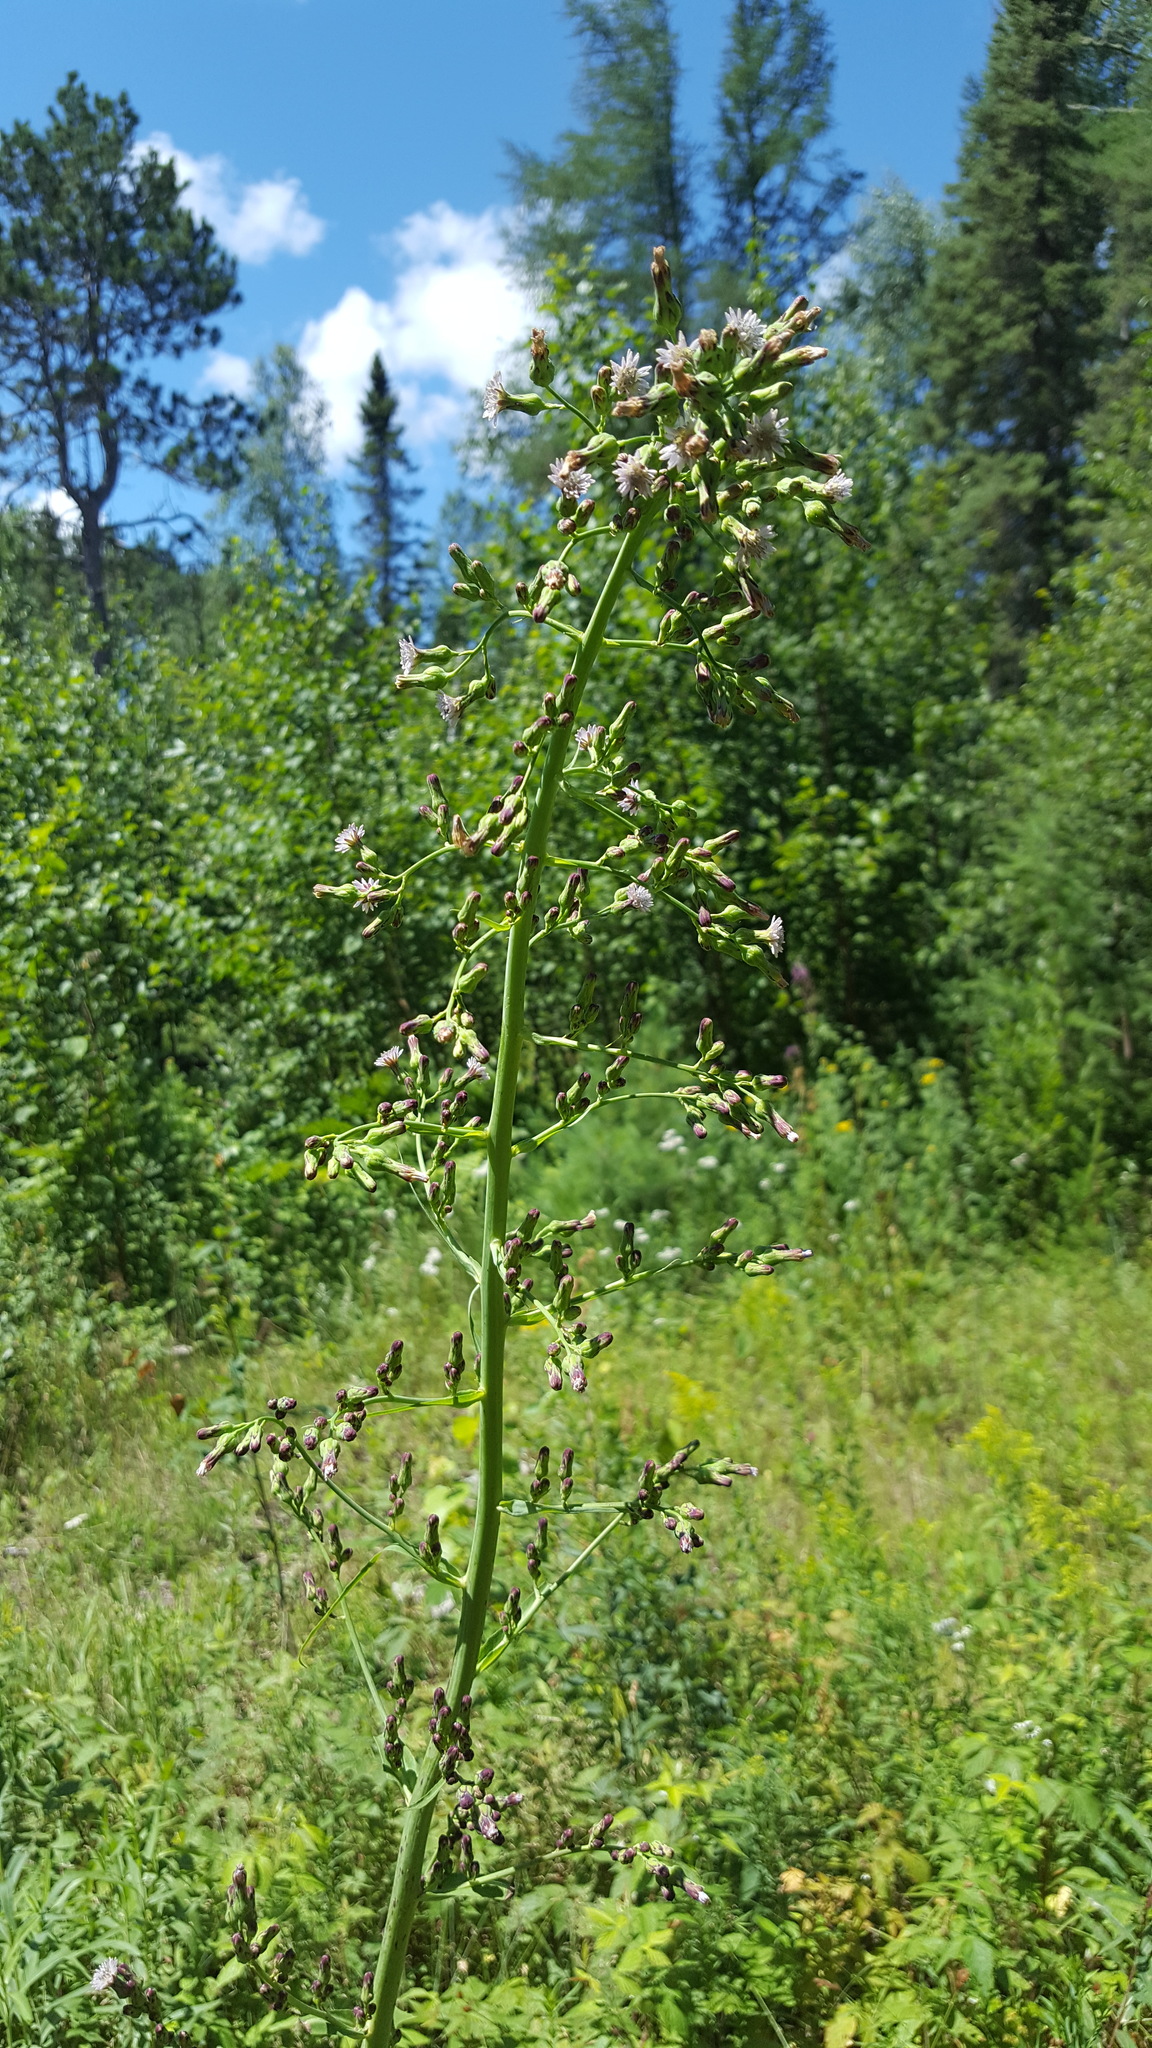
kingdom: Plantae
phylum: Tracheophyta
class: Magnoliopsida
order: Asterales
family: Asteraceae
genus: Lactuca
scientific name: Lactuca biennis
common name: Blue wood lettuce
